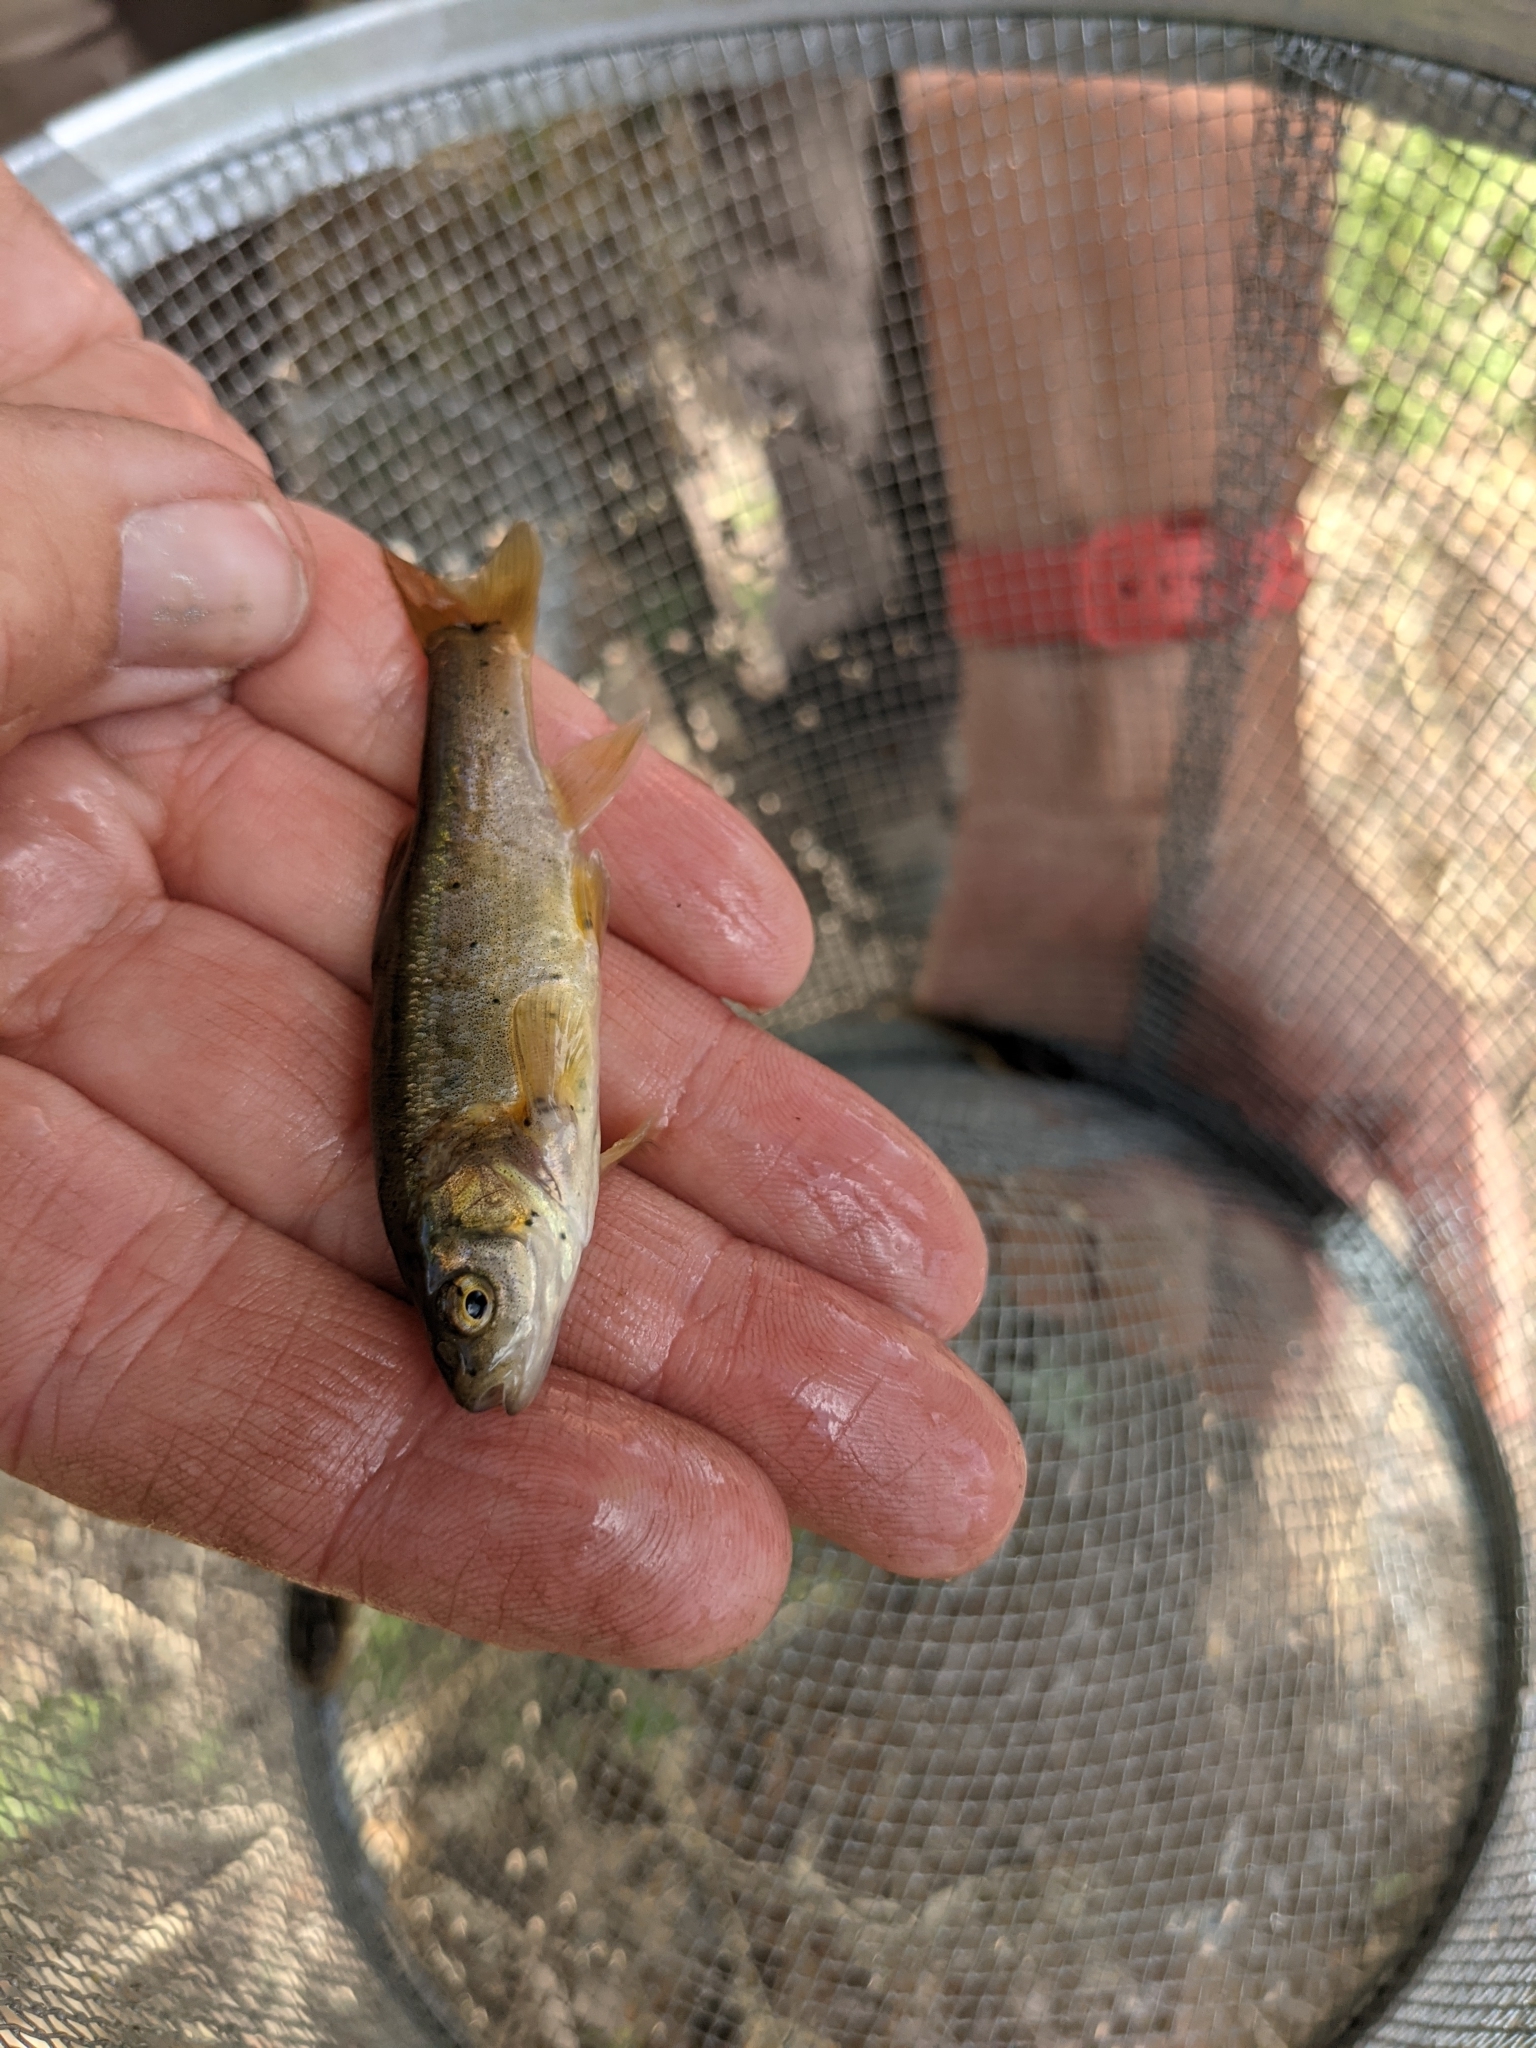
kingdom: Animalia
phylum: Chordata
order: Cypriniformes
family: Cyprinidae
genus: Gila
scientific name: Gila purpurea
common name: Yaqui chub
